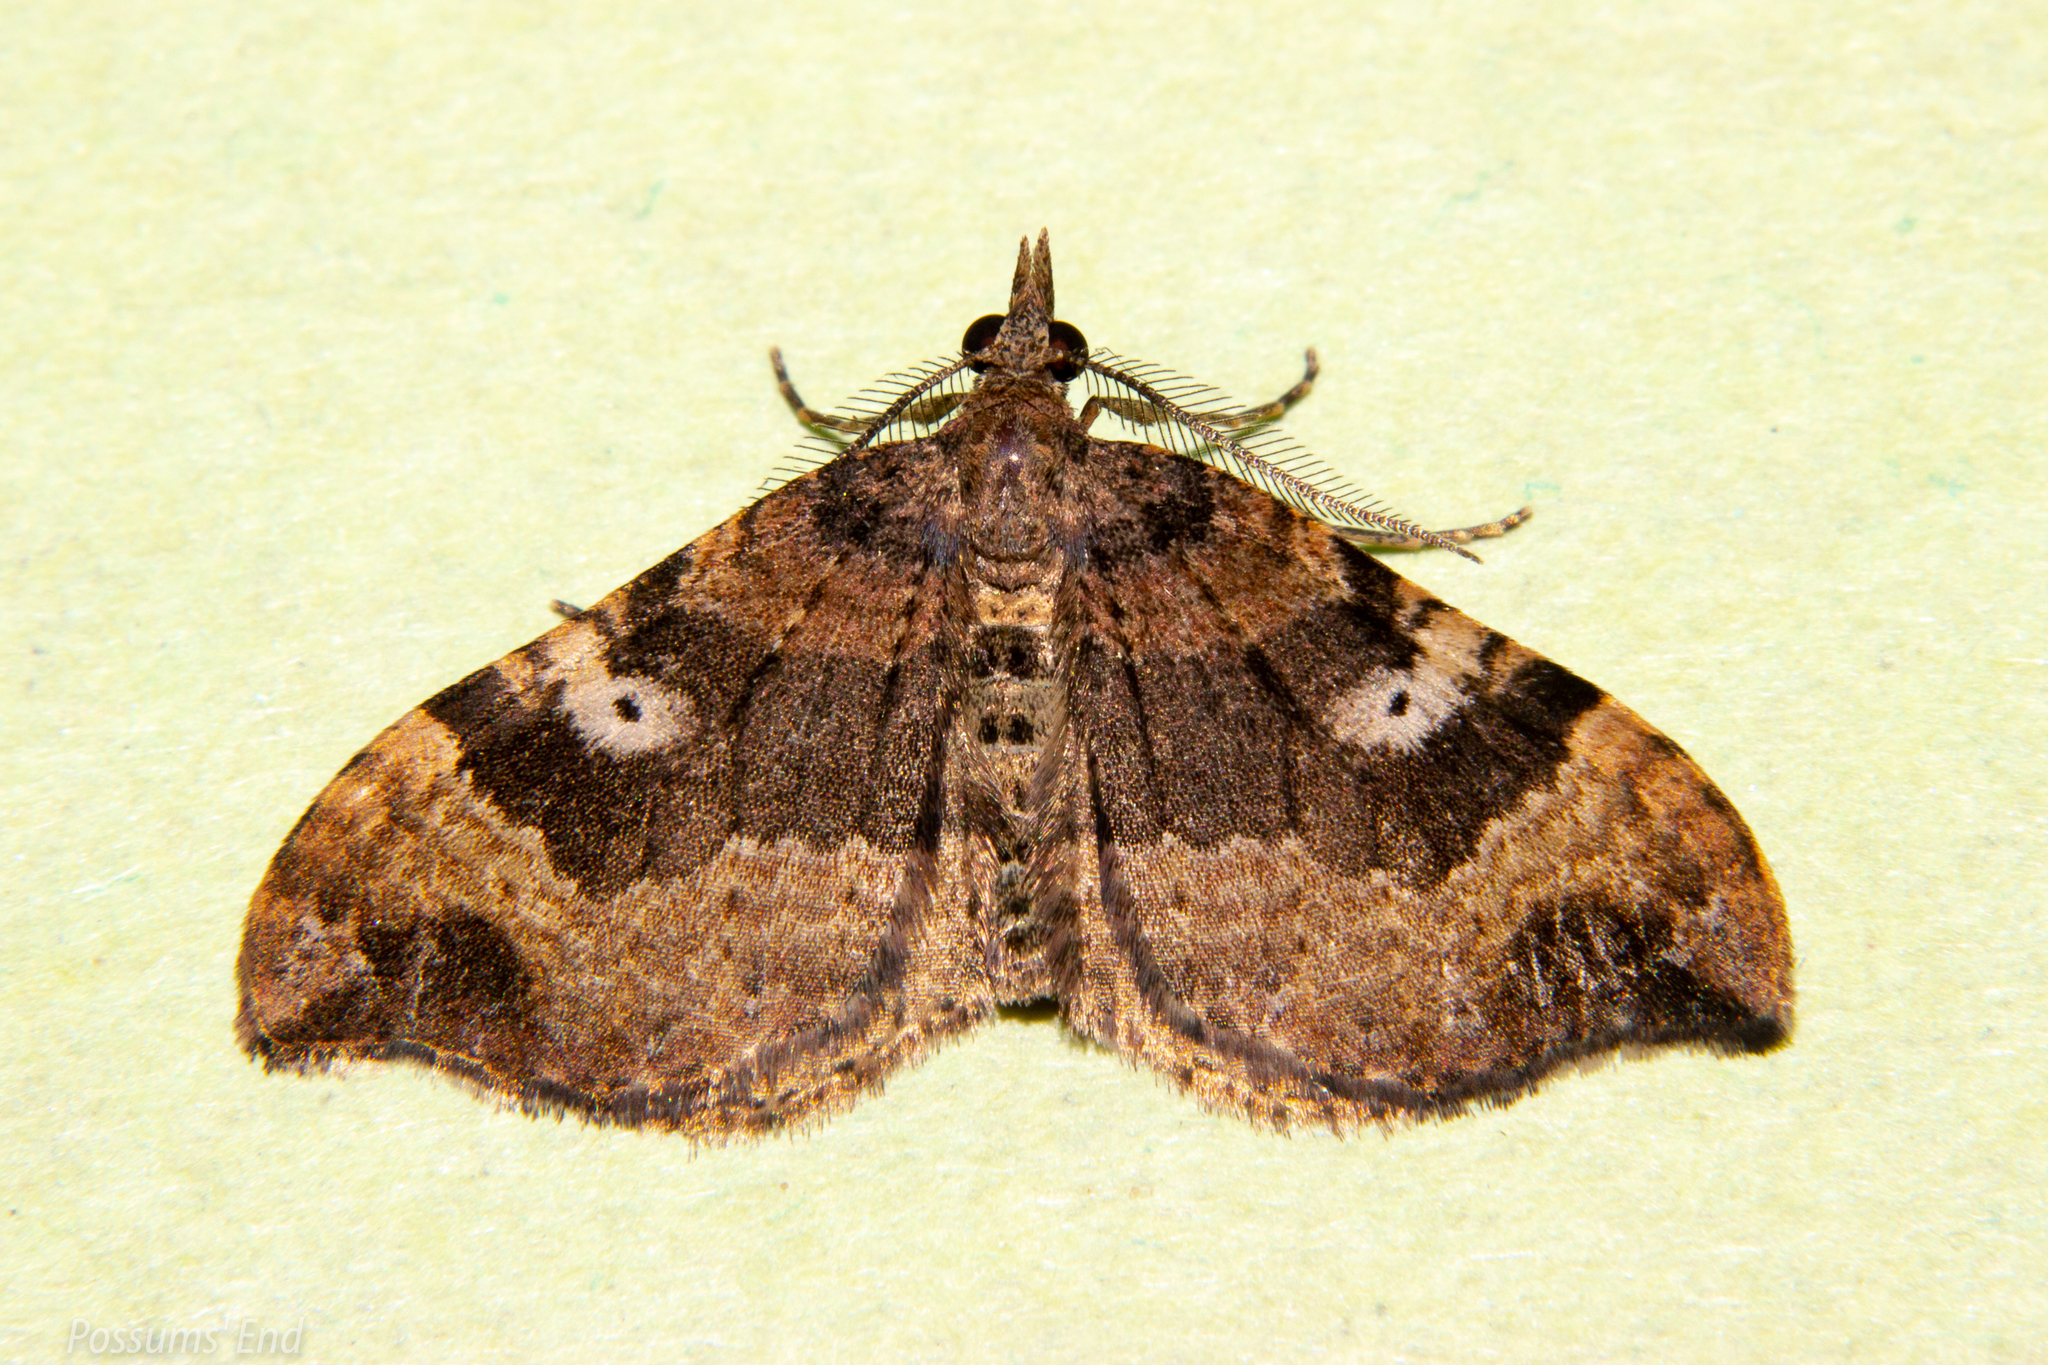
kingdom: Animalia
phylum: Arthropoda
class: Insecta
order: Lepidoptera
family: Geometridae
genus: Homodotis
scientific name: Homodotis megaspilata
